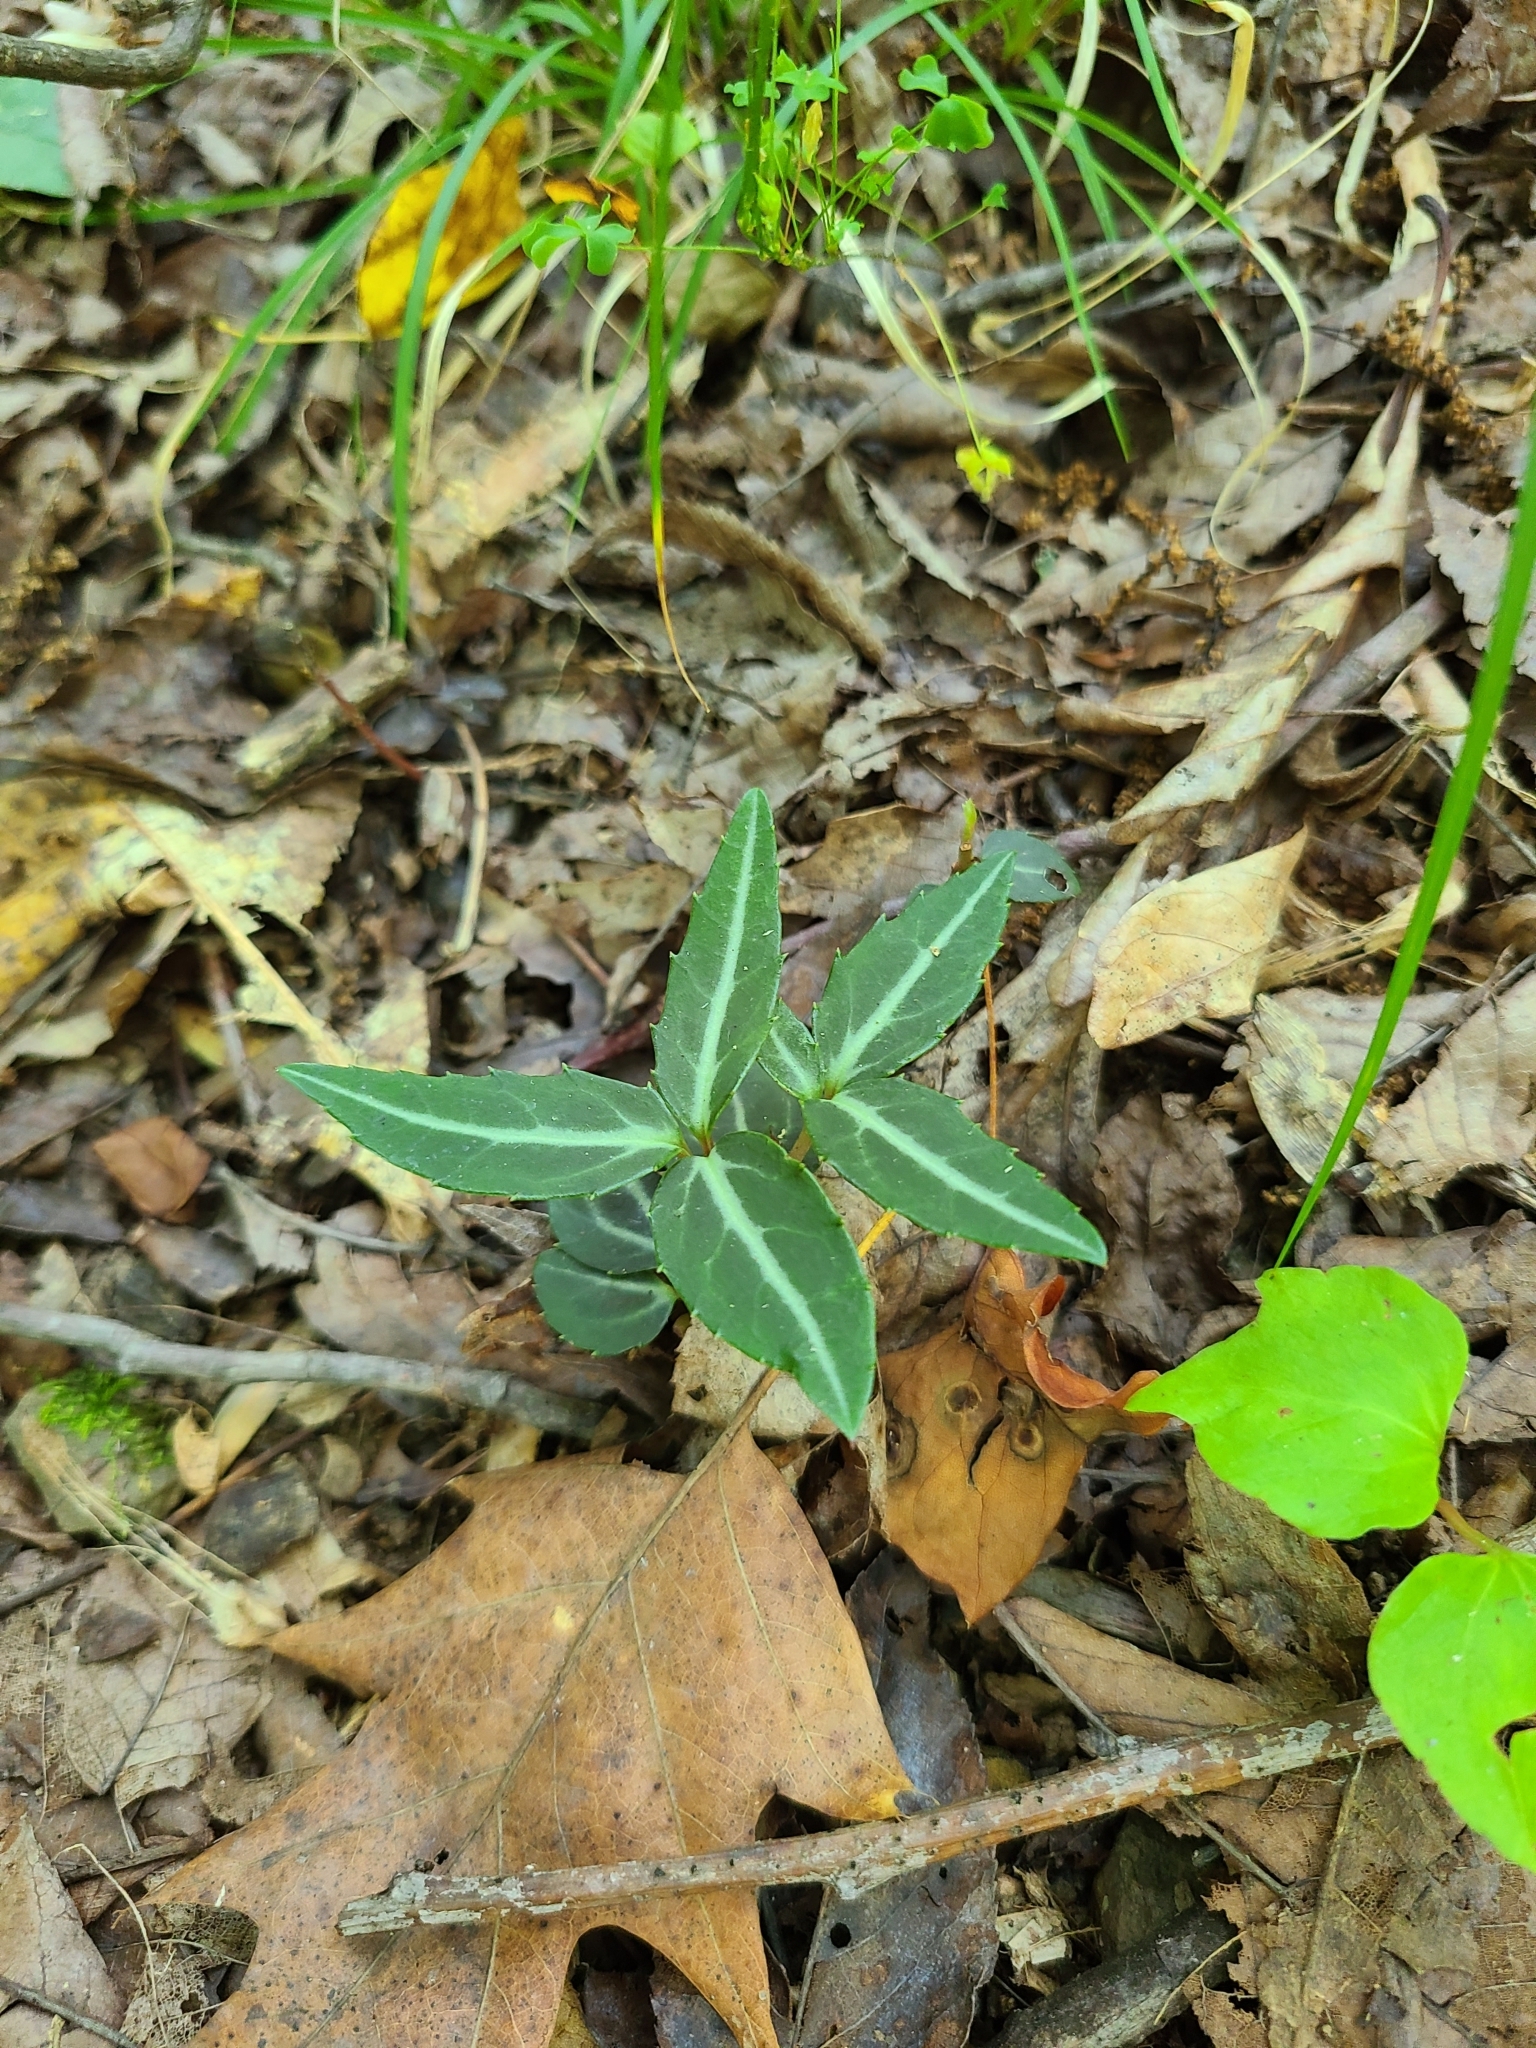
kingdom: Plantae
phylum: Tracheophyta
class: Magnoliopsida
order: Ericales
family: Ericaceae
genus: Chimaphila
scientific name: Chimaphila maculata
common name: Spotted pipsissewa
